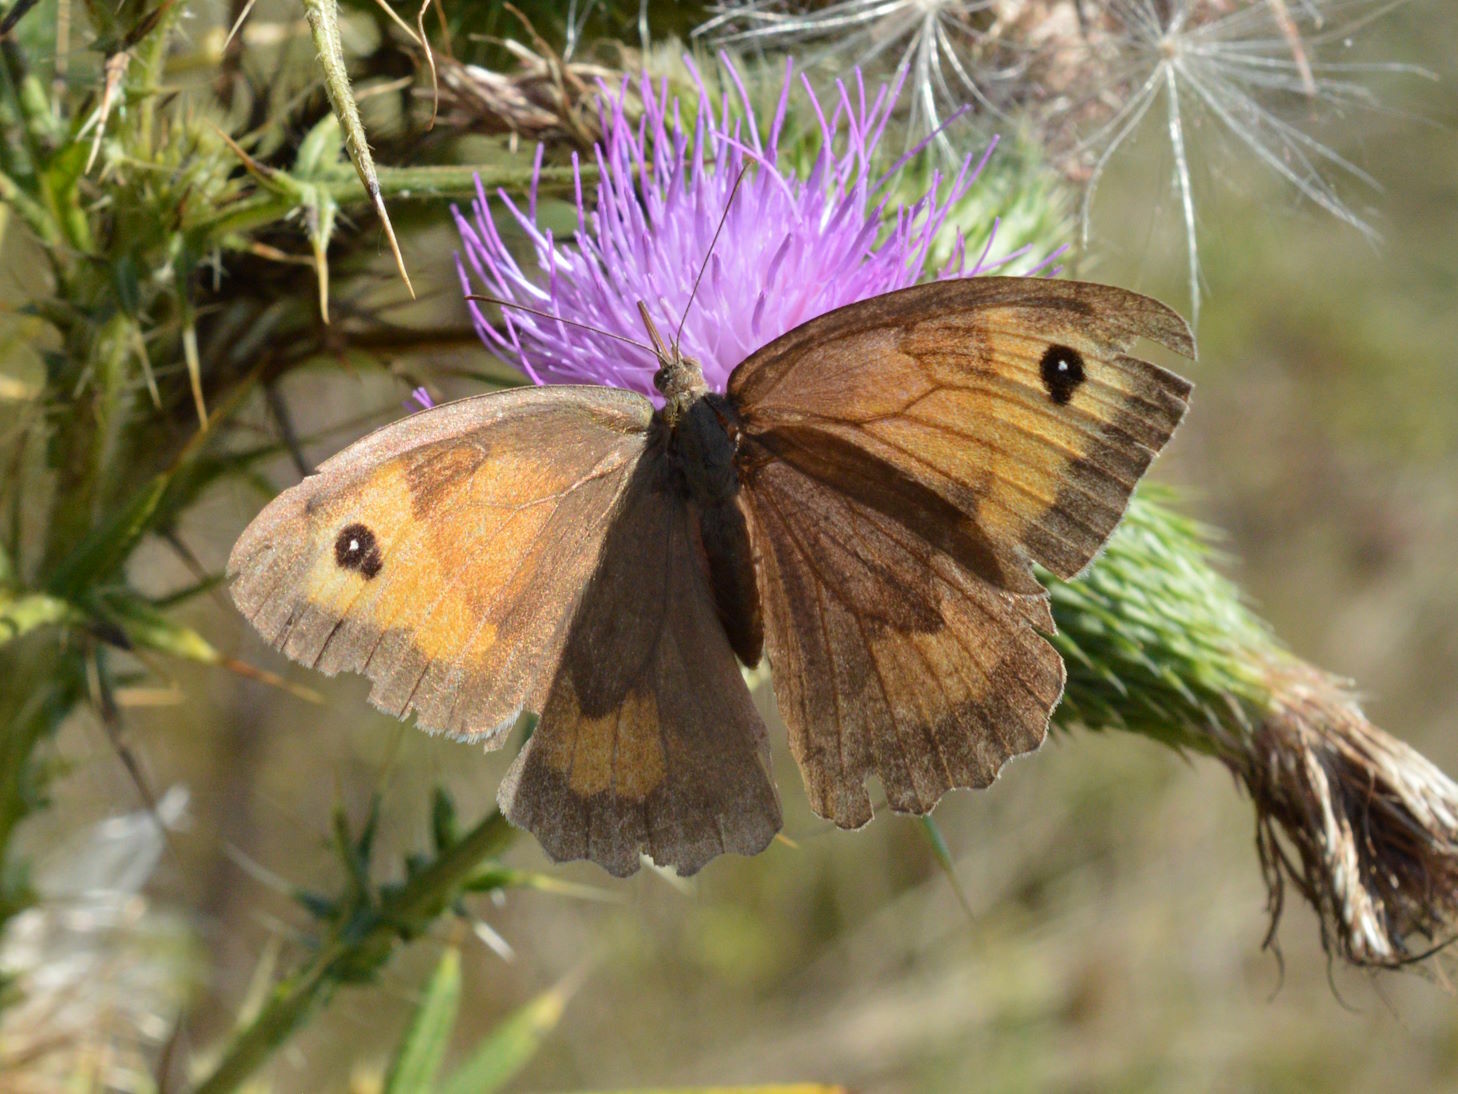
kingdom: Animalia
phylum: Arthropoda
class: Insecta
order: Lepidoptera
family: Nymphalidae
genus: Maniola
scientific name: Maniola jurtina
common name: Meadow brown
